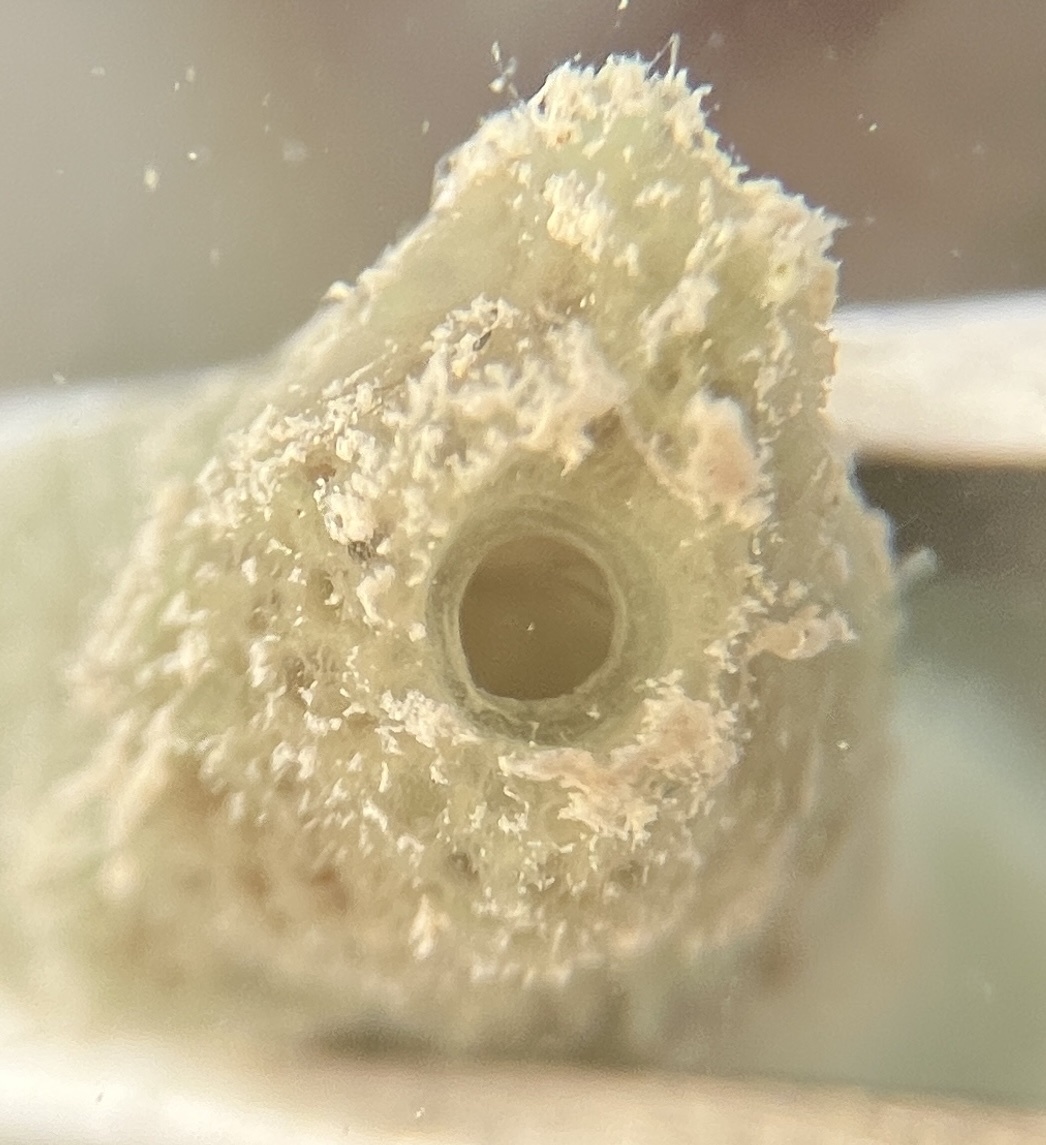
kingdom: Animalia
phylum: Porifera
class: Demospongiae
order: Haplosclerida
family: Niphatidae
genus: Amphimedon
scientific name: Amphimedon viridis
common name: Green sponge
